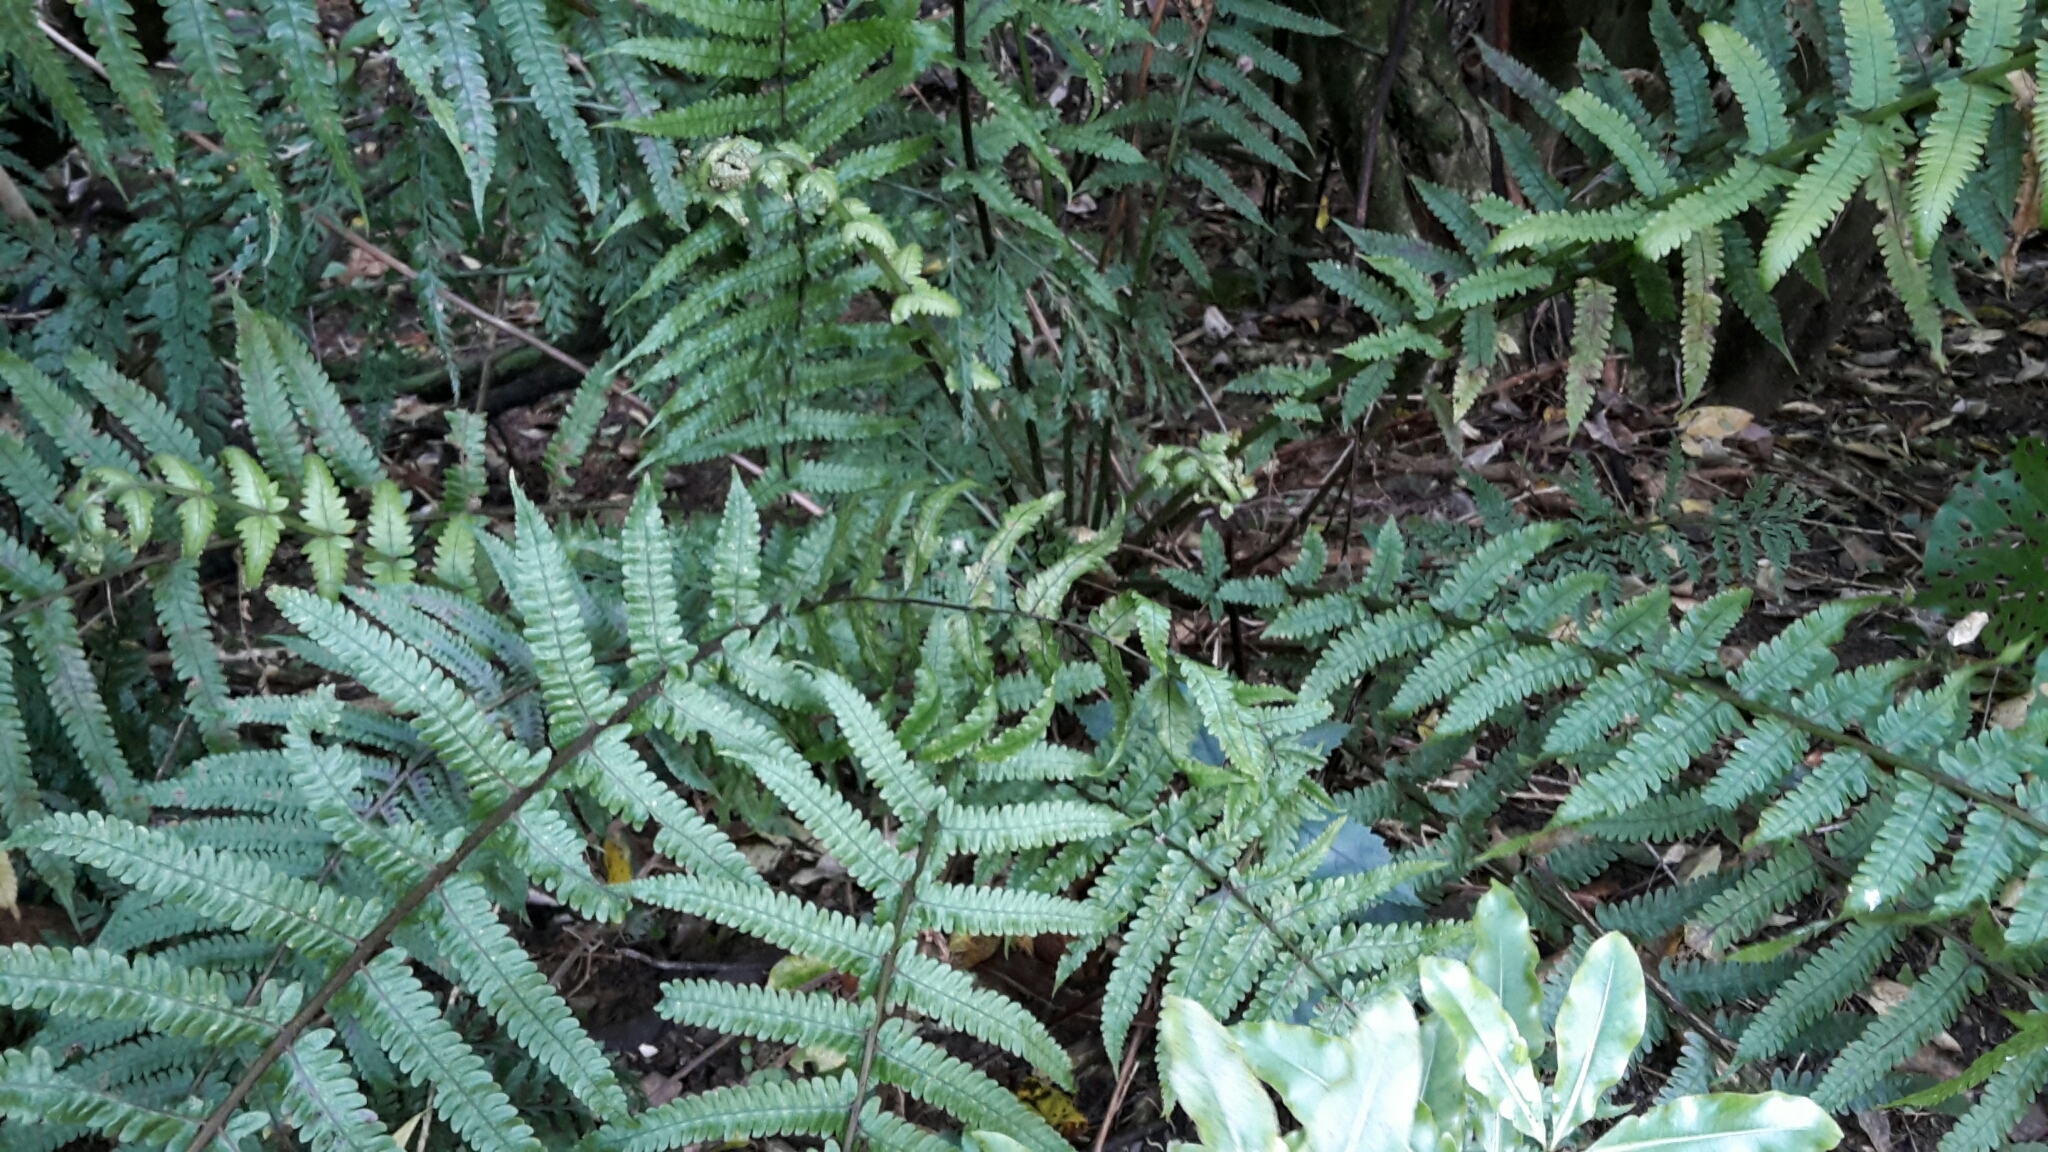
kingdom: Plantae
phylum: Tracheophyta
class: Polypodiopsida
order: Polypodiales
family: Thelypteridaceae
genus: Pakau
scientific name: Pakau pennigera
